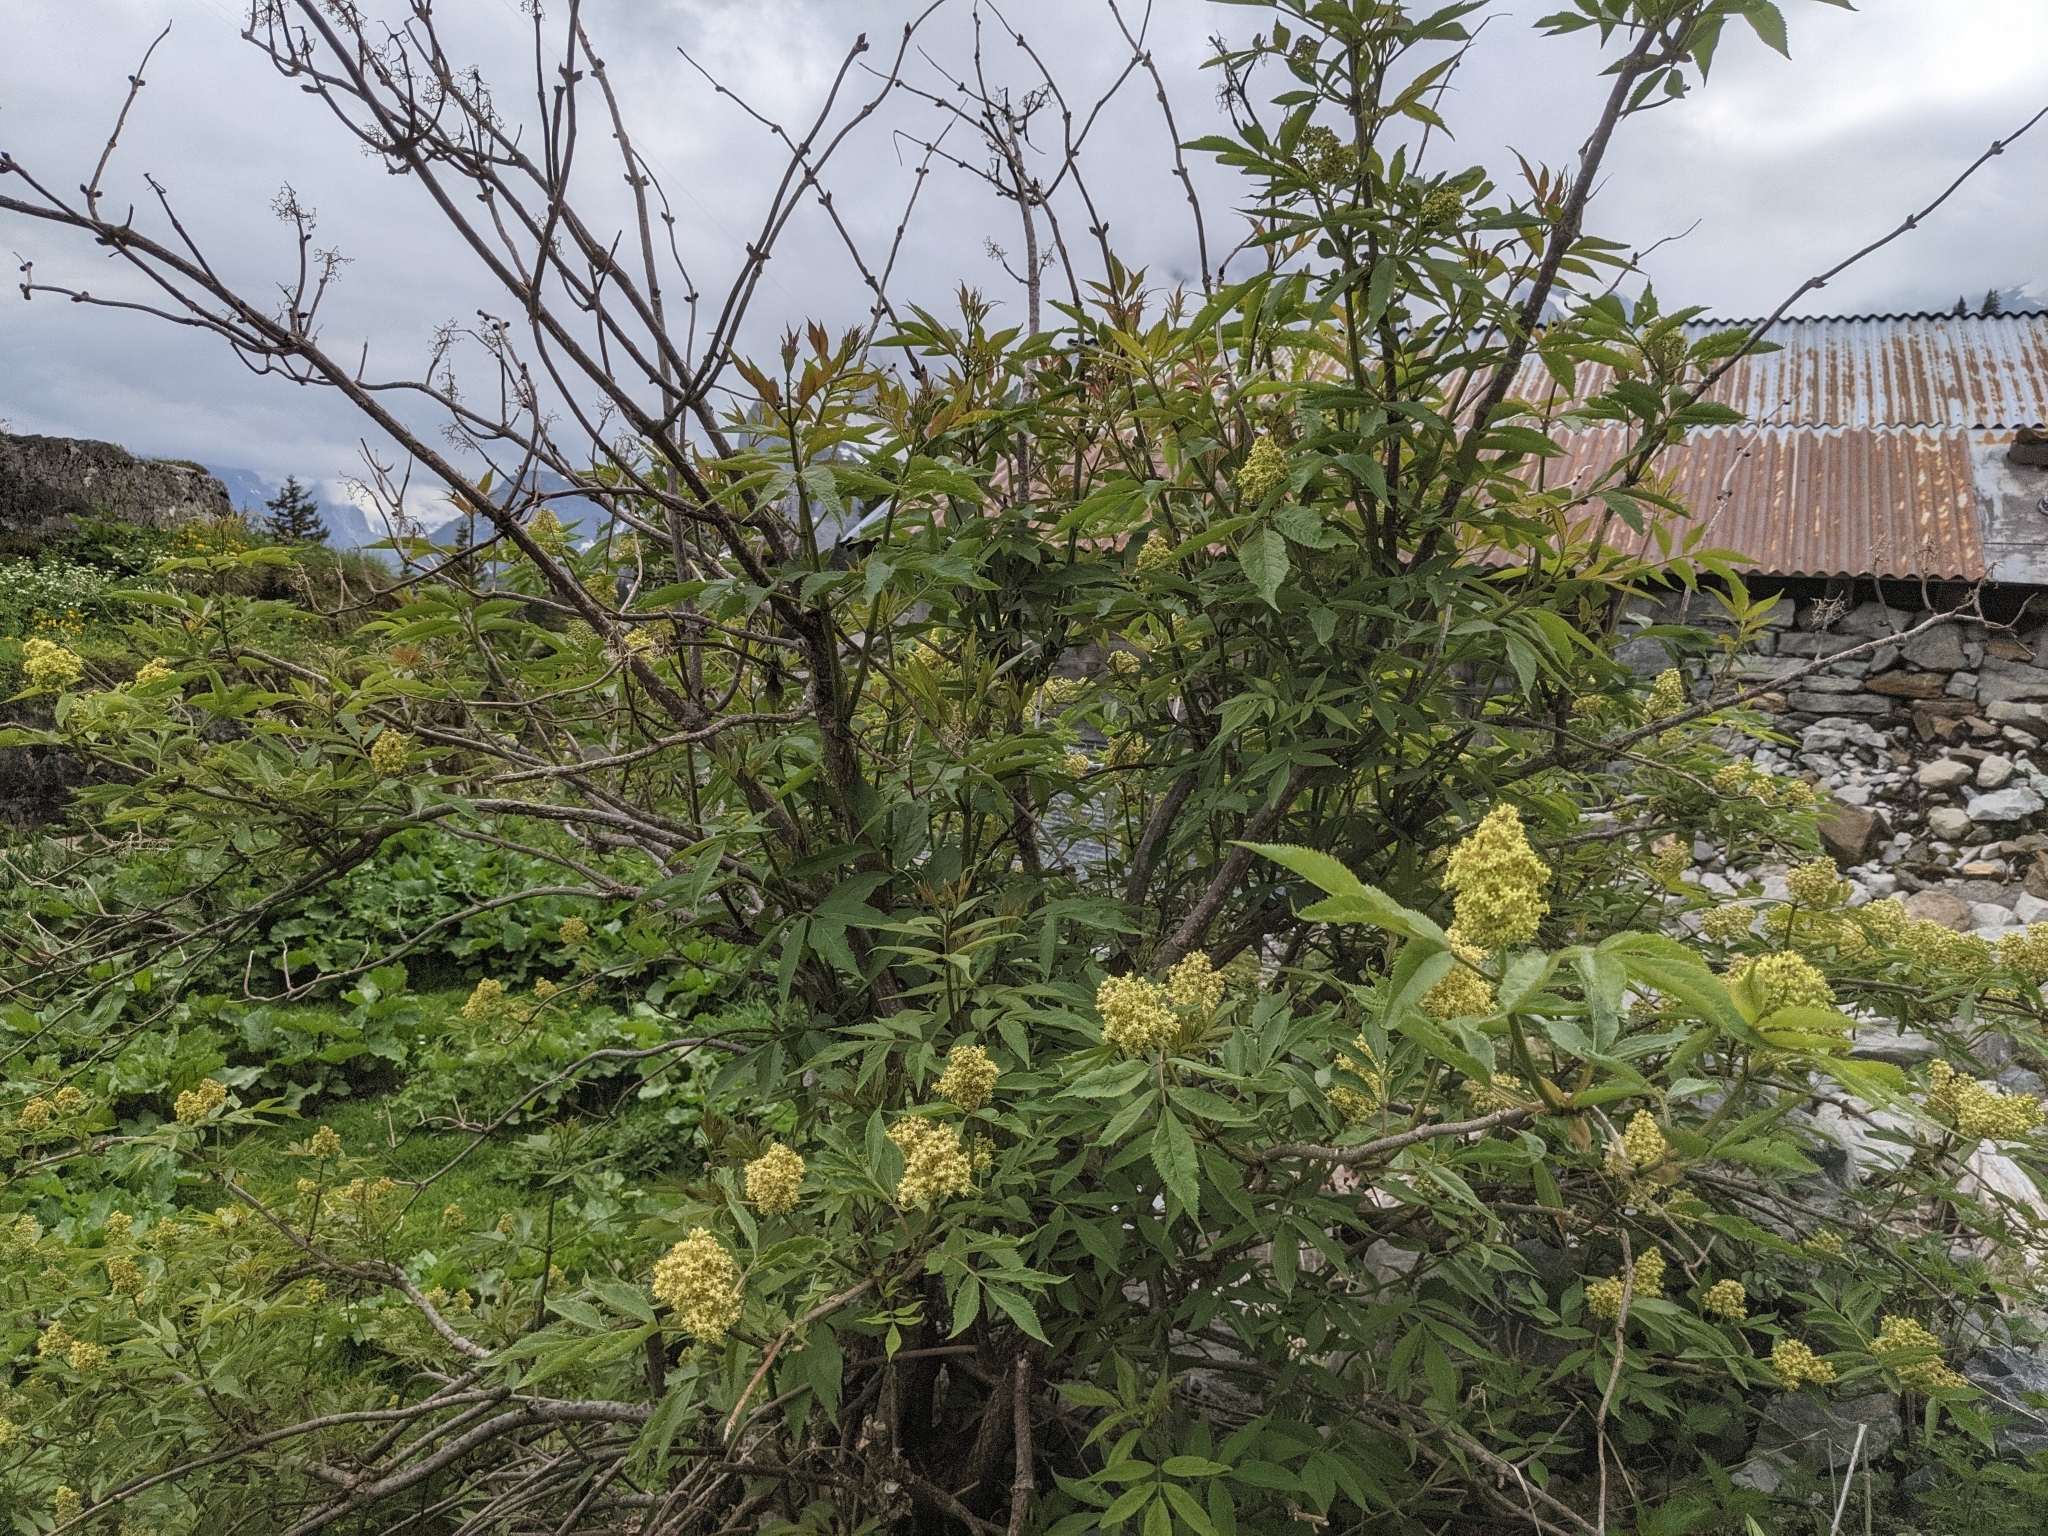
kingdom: Plantae
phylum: Tracheophyta
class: Magnoliopsida
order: Dipsacales
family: Viburnaceae
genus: Sambucus
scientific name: Sambucus racemosa
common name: Red-berried elder
